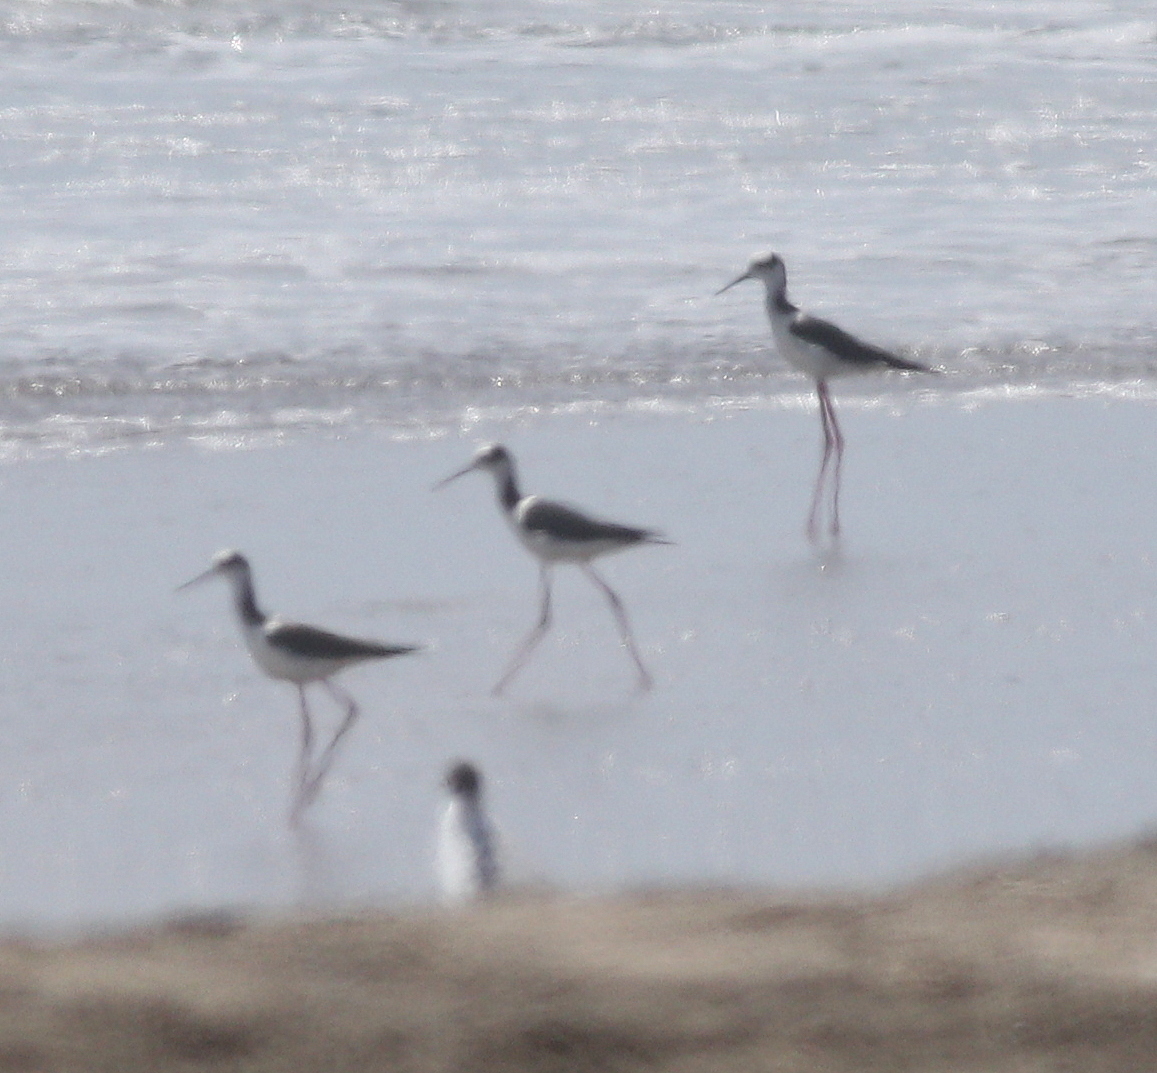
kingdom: Animalia
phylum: Chordata
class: Aves
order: Charadriiformes
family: Recurvirostridae
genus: Himantopus
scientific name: Himantopus mexicanus
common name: Black-necked stilt
